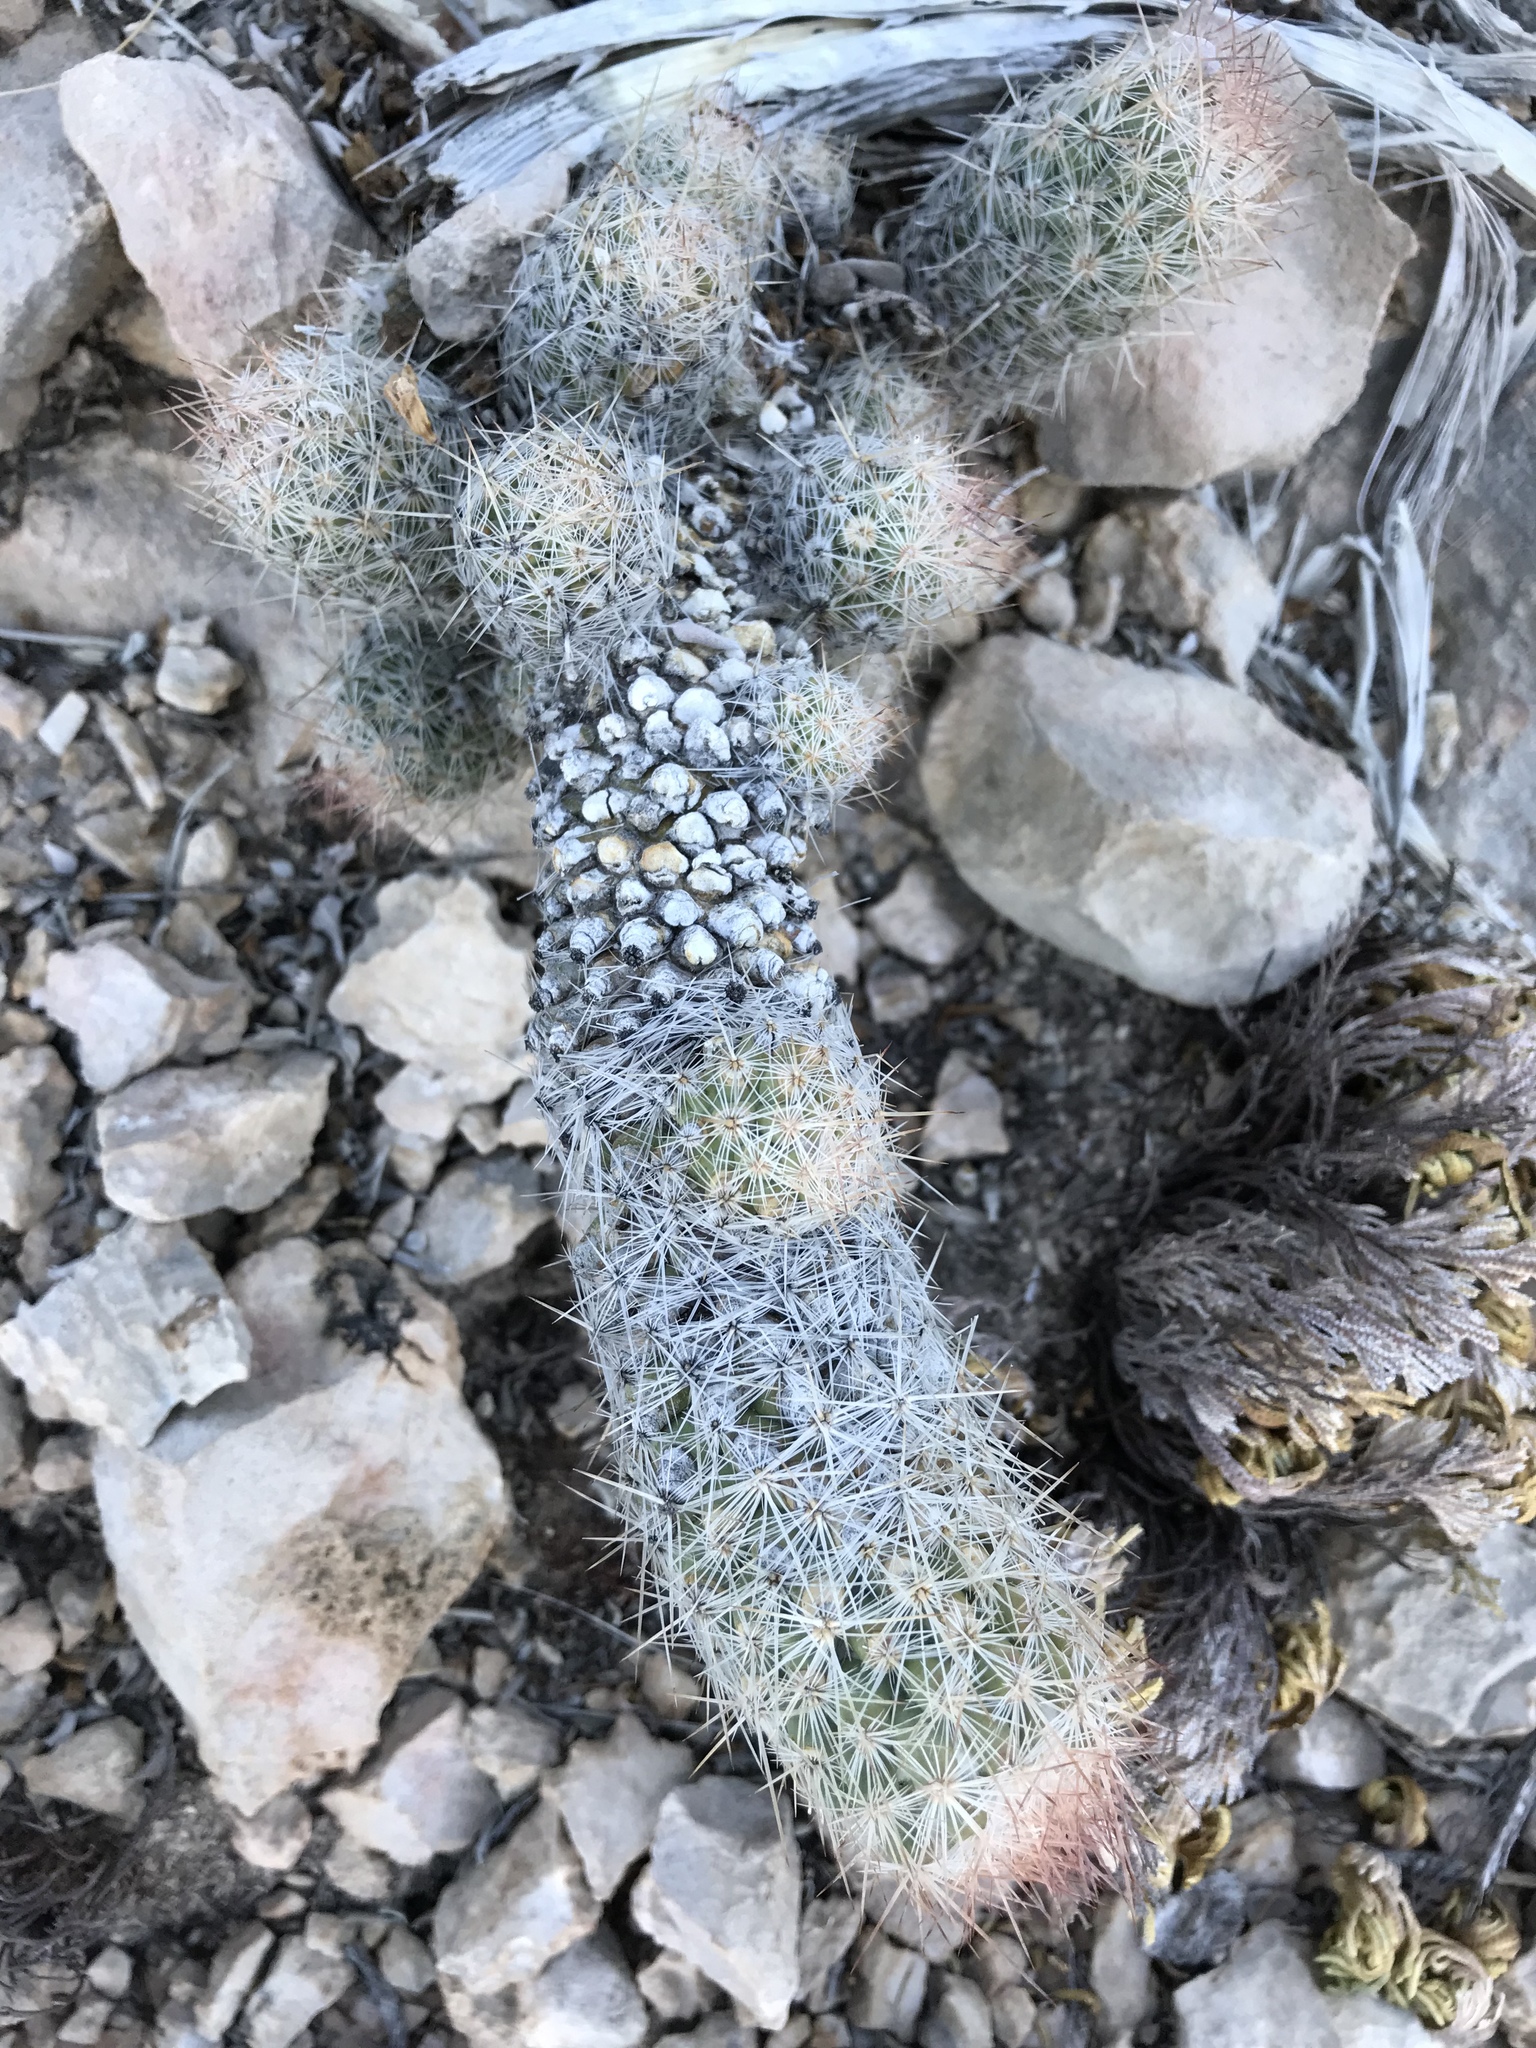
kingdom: Plantae
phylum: Tracheophyta
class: Magnoliopsida
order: Caryophyllales
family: Cactaceae
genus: Pelecyphora
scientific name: Pelecyphora tuberculosa
